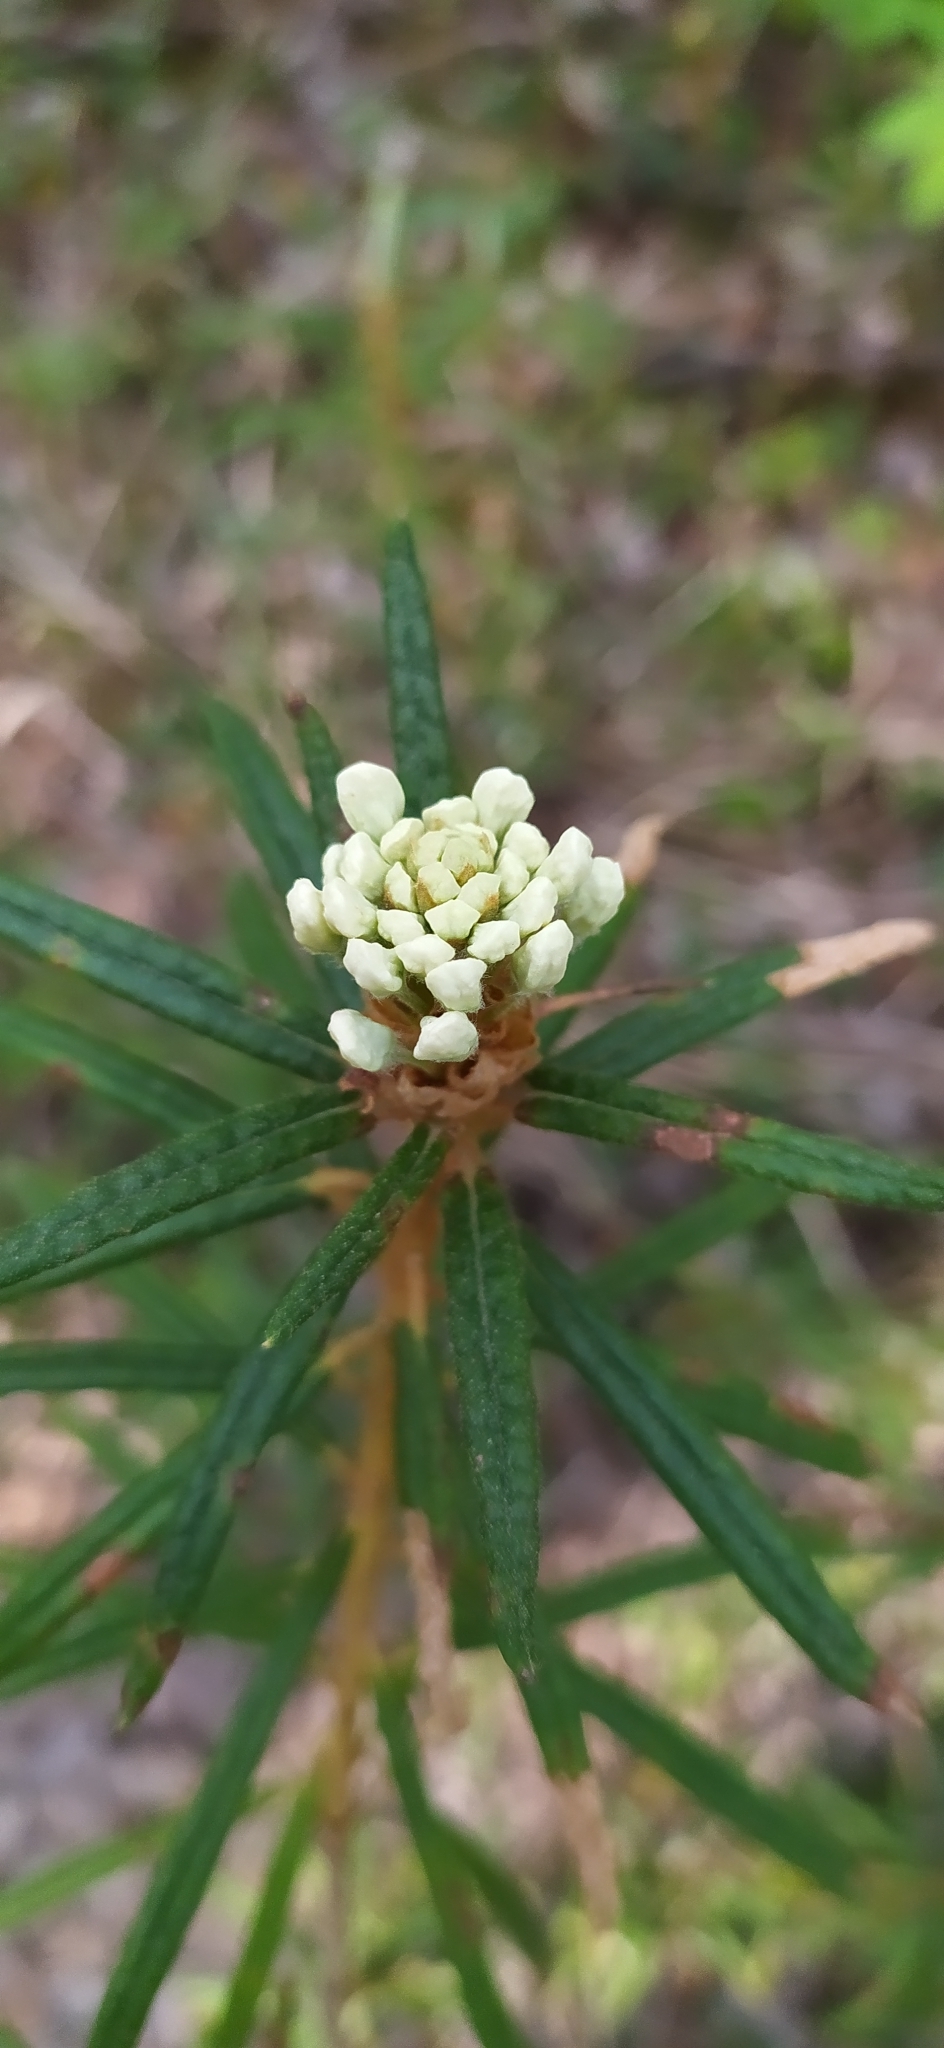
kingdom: Plantae
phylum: Tracheophyta
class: Magnoliopsida
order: Ericales
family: Ericaceae
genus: Rhododendron
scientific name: Rhododendron tomentosum
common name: Marsh labrador tea
